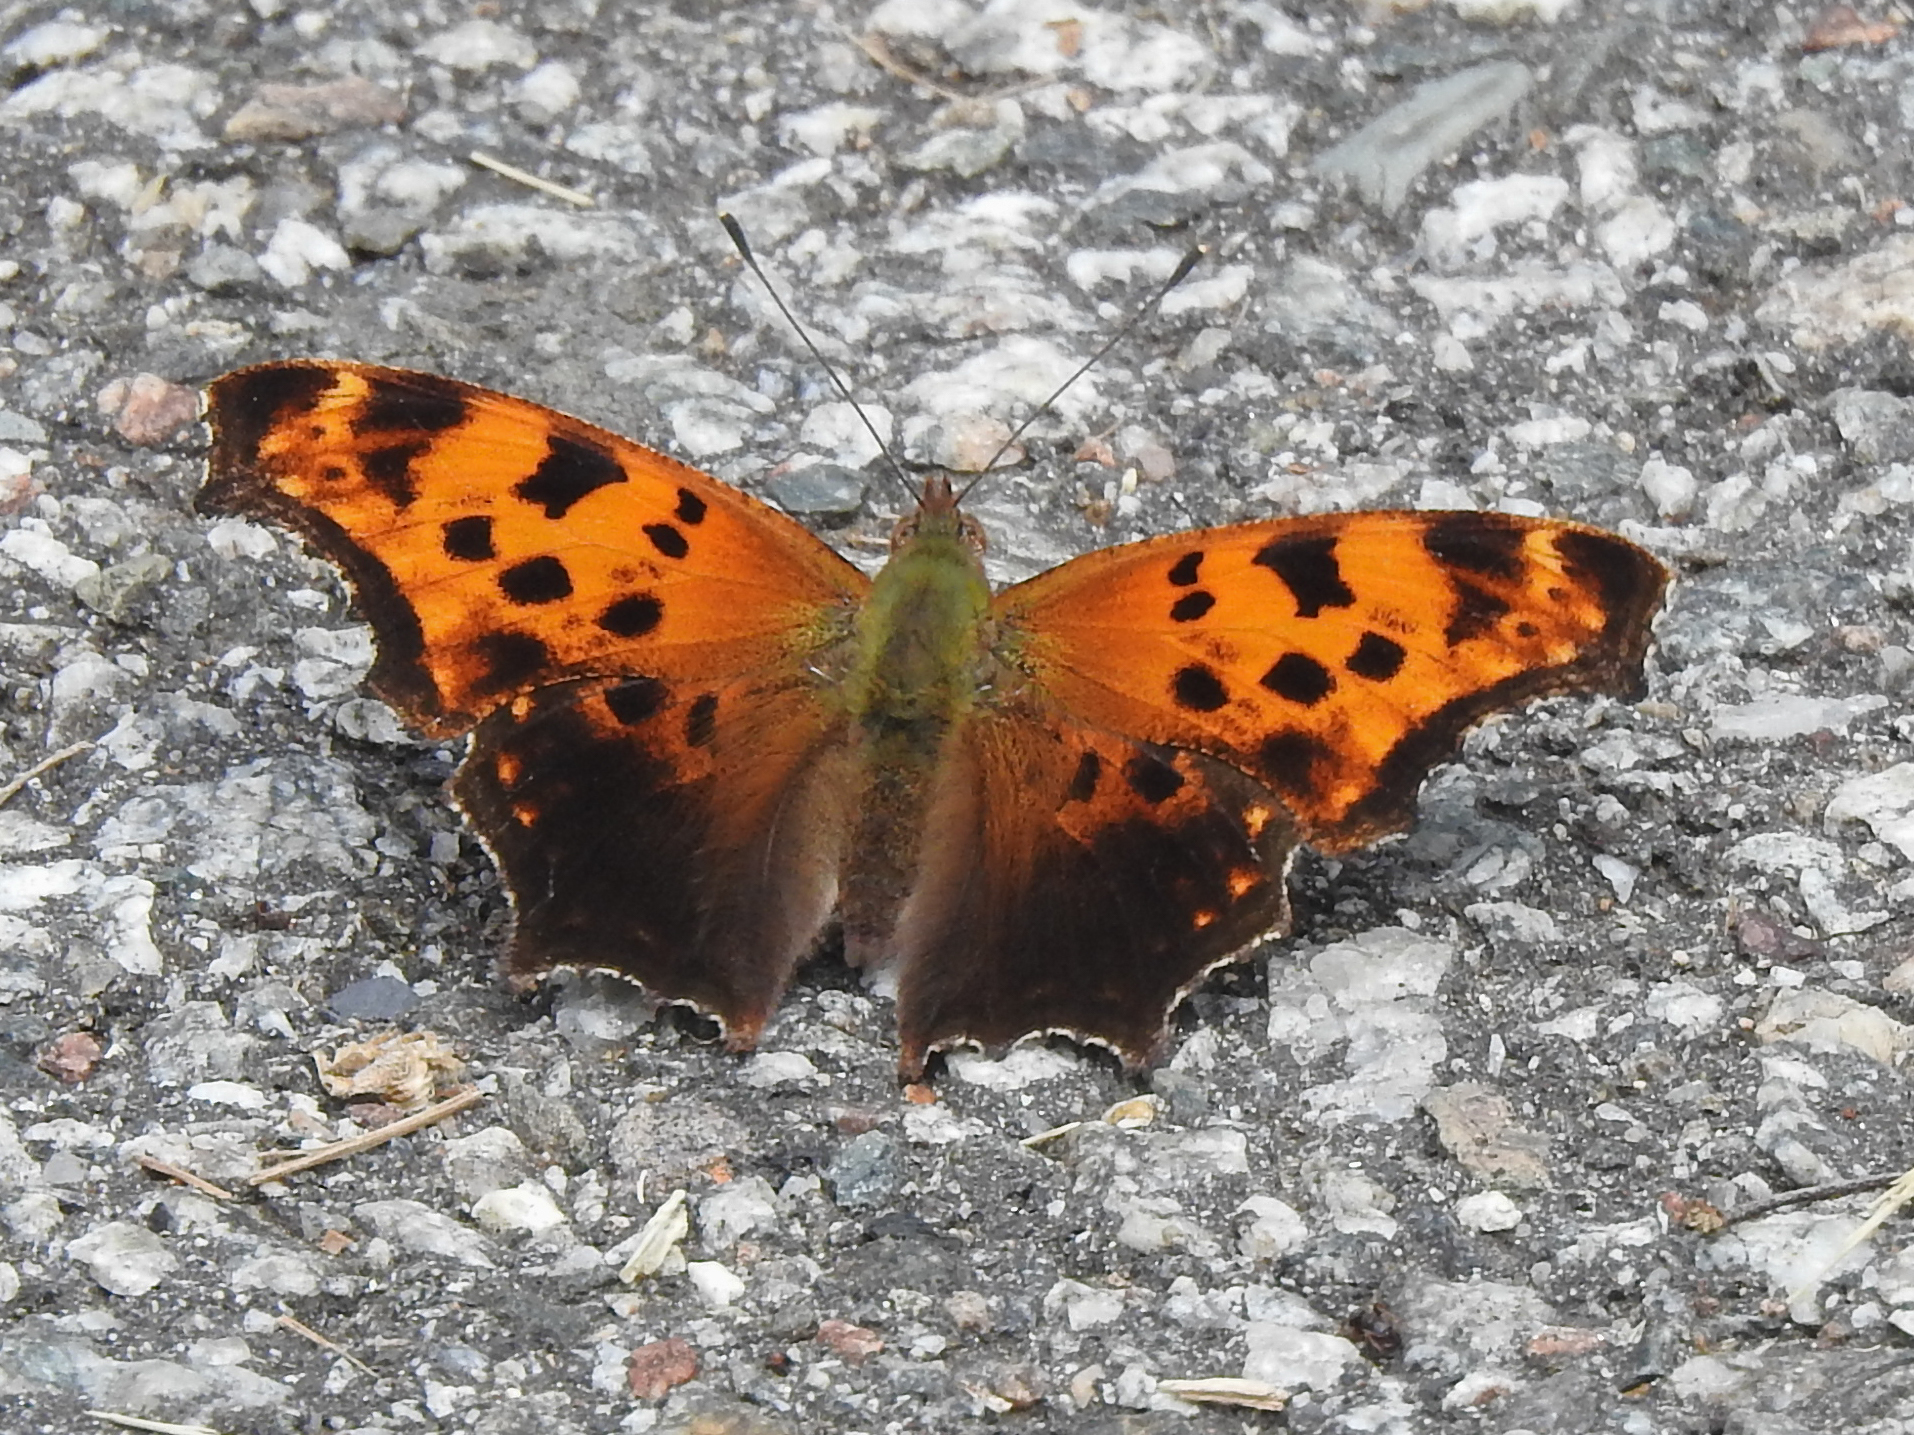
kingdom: Animalia
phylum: Arthropoda
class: Insecta
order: Lepidoptera
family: Nymphalidae
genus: Polygonia
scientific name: Polygonia comma
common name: Eastern comma
